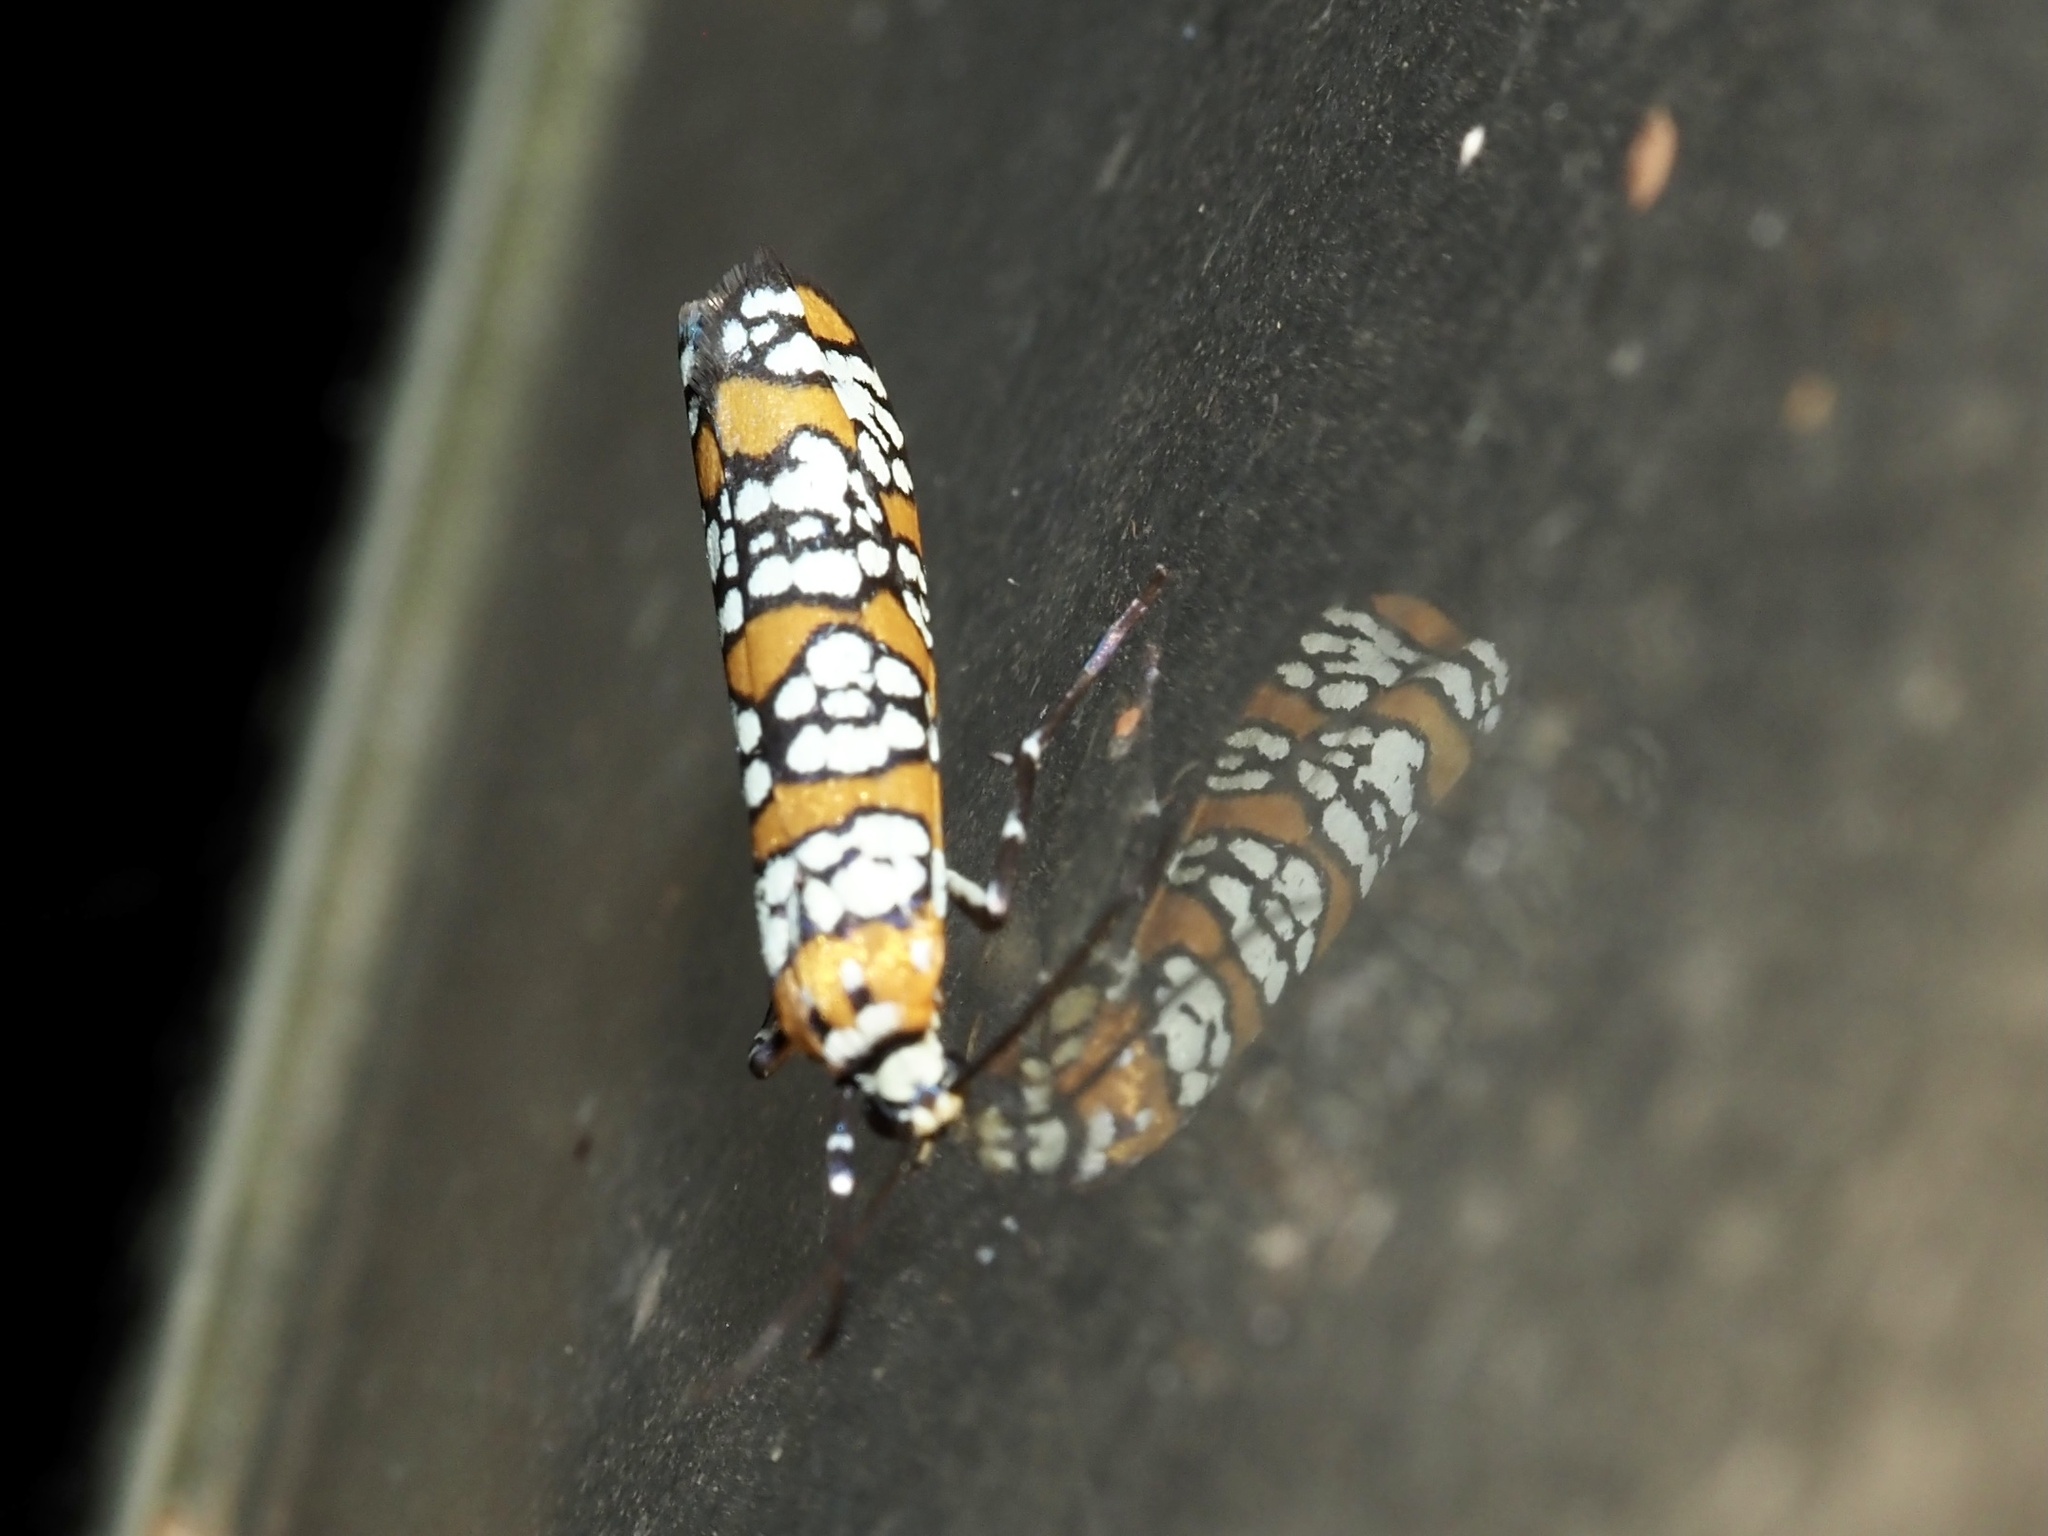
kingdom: Animalia
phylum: Arthropoda
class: Insecta
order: Lepidoptera
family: Attevidae
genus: Atteva
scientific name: Atteva punctella
